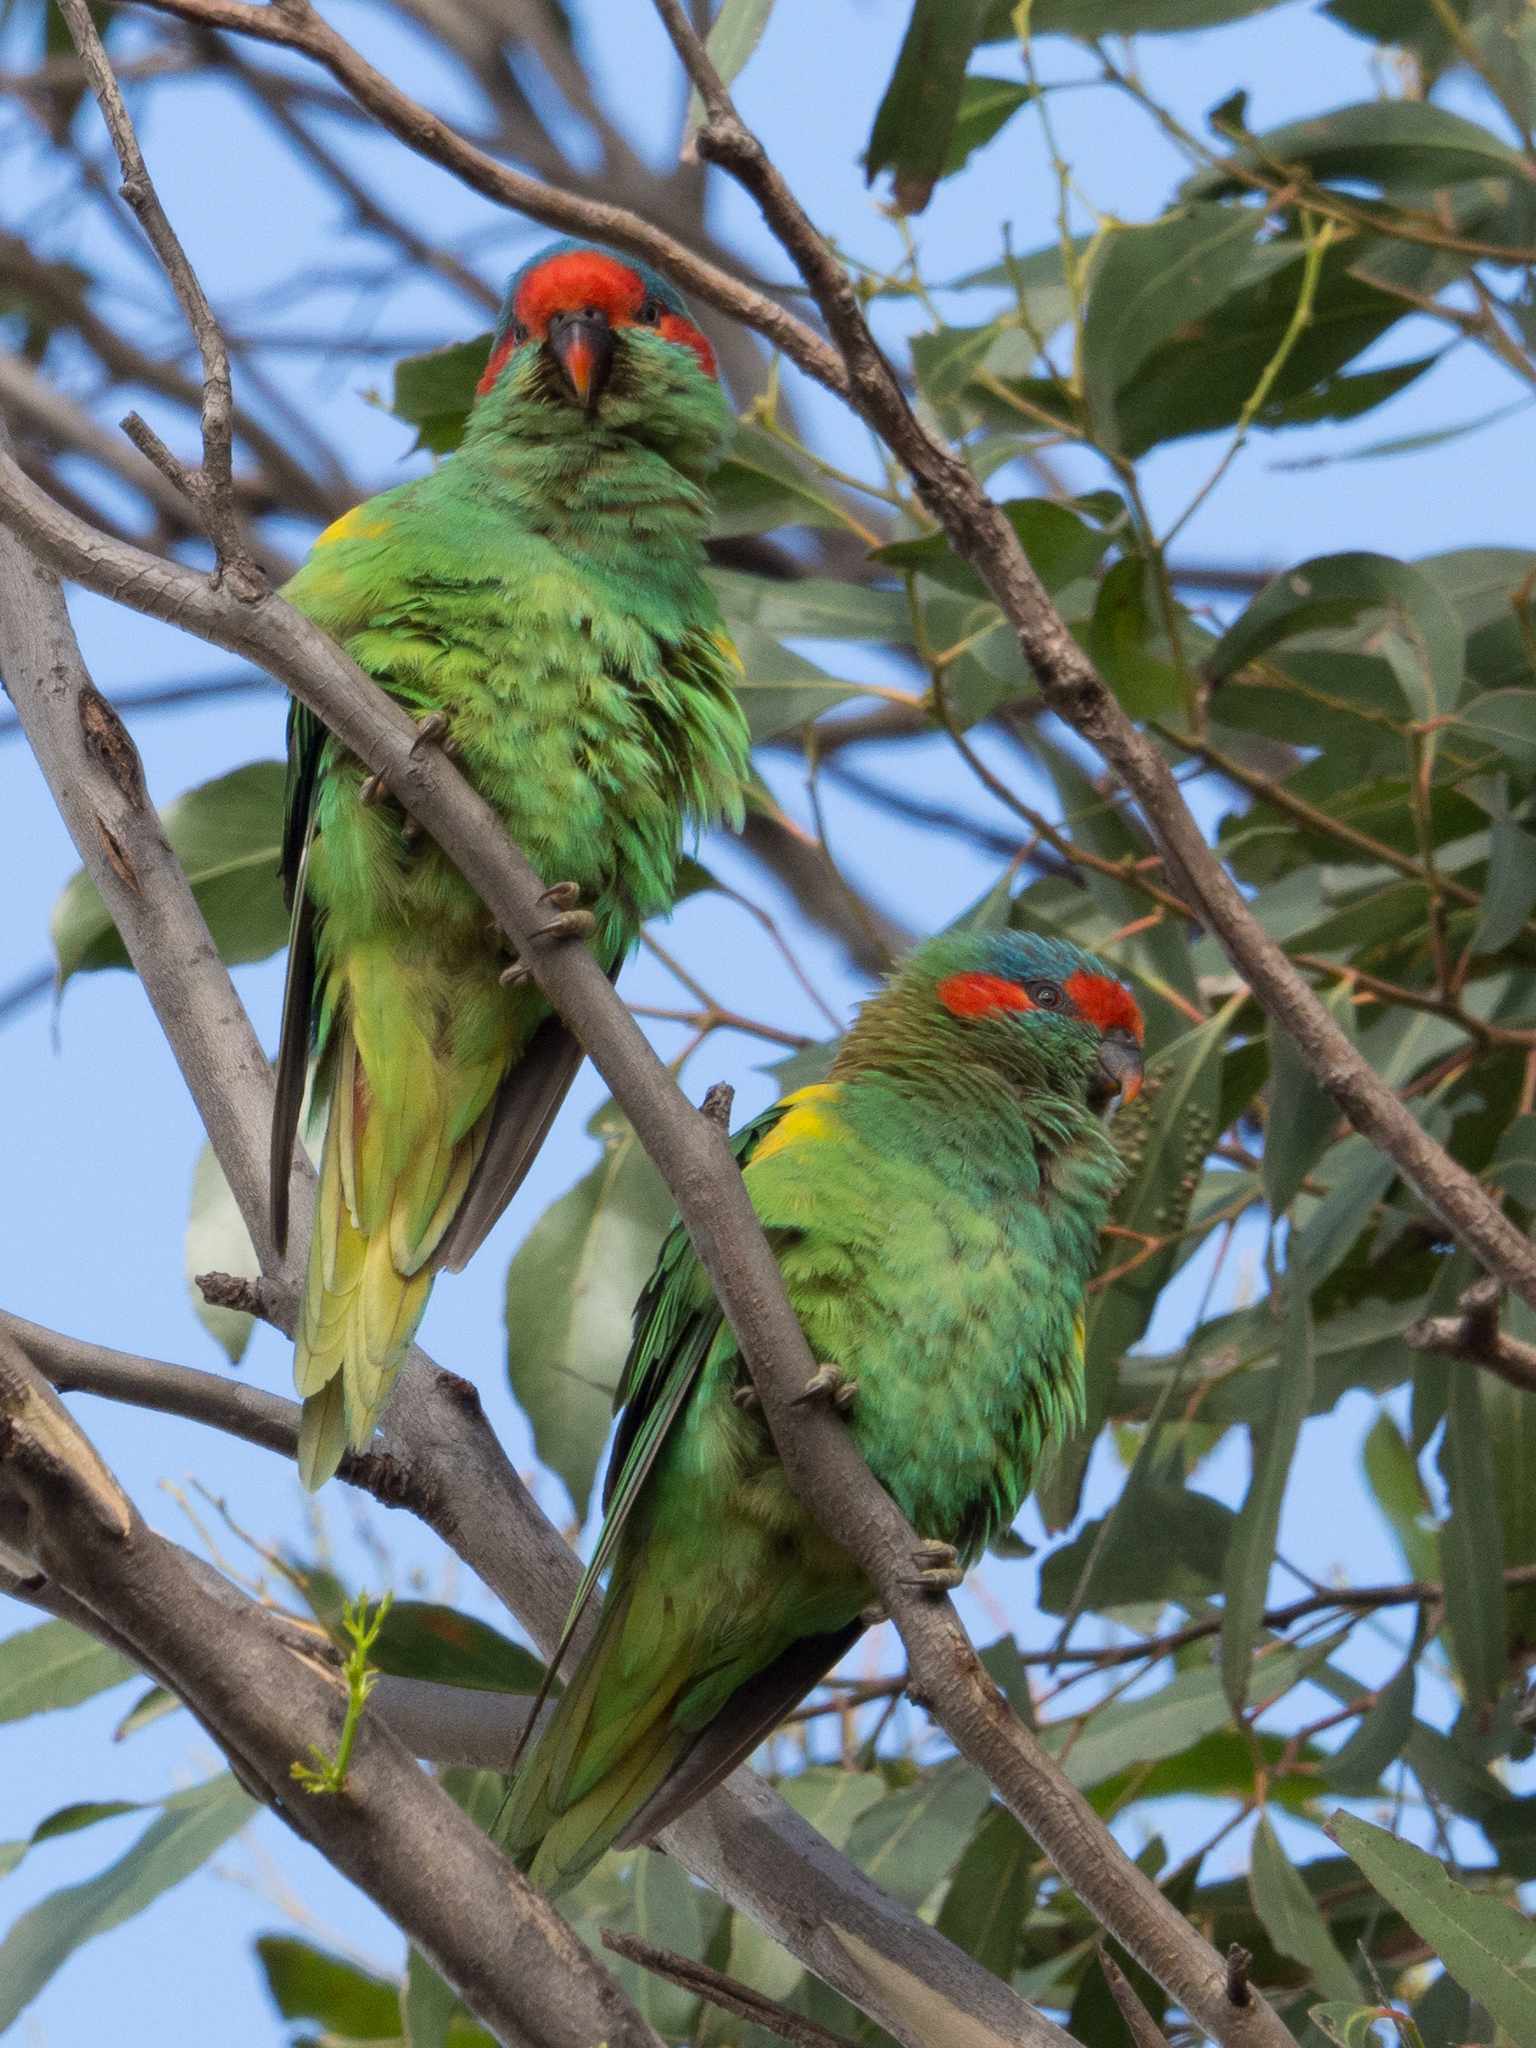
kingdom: Animalia
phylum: Chordata
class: Aves
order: Psittaciformes
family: Psittacidae
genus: Glossopsitta
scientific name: Glossopsitta concinna
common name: Musk lorikeet
